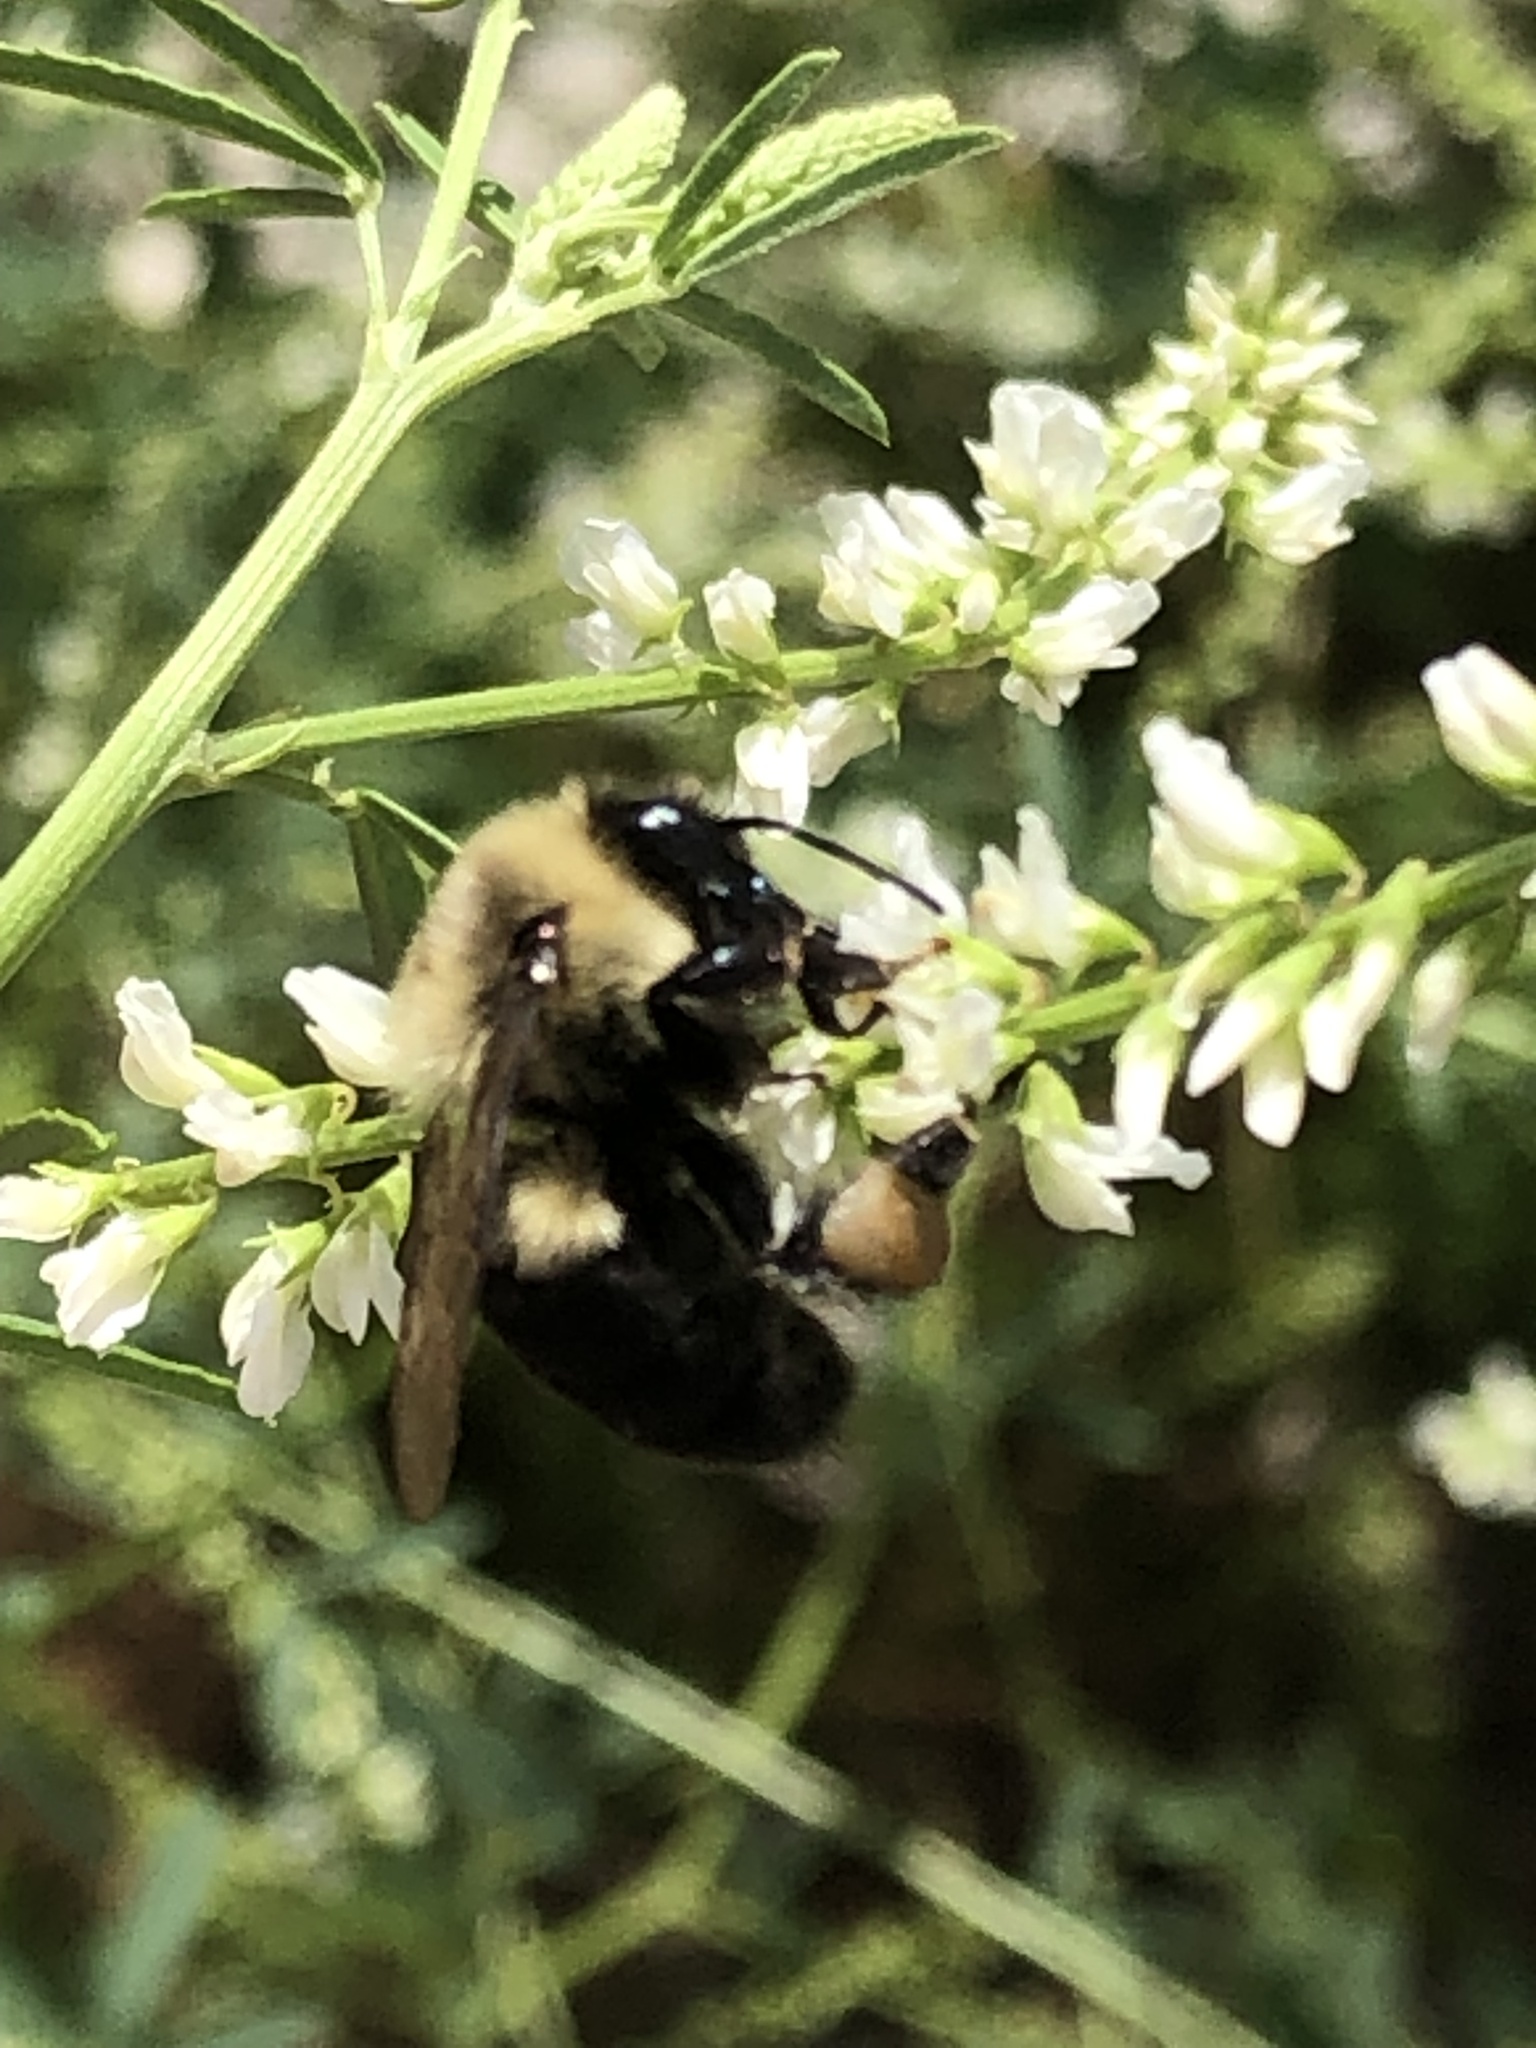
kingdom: Animalia
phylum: Arthropoda
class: Insecta
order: Hymenoptera
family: Apidae
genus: Bombus
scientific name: Bombus impatiens
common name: Common eastern bumble bee
